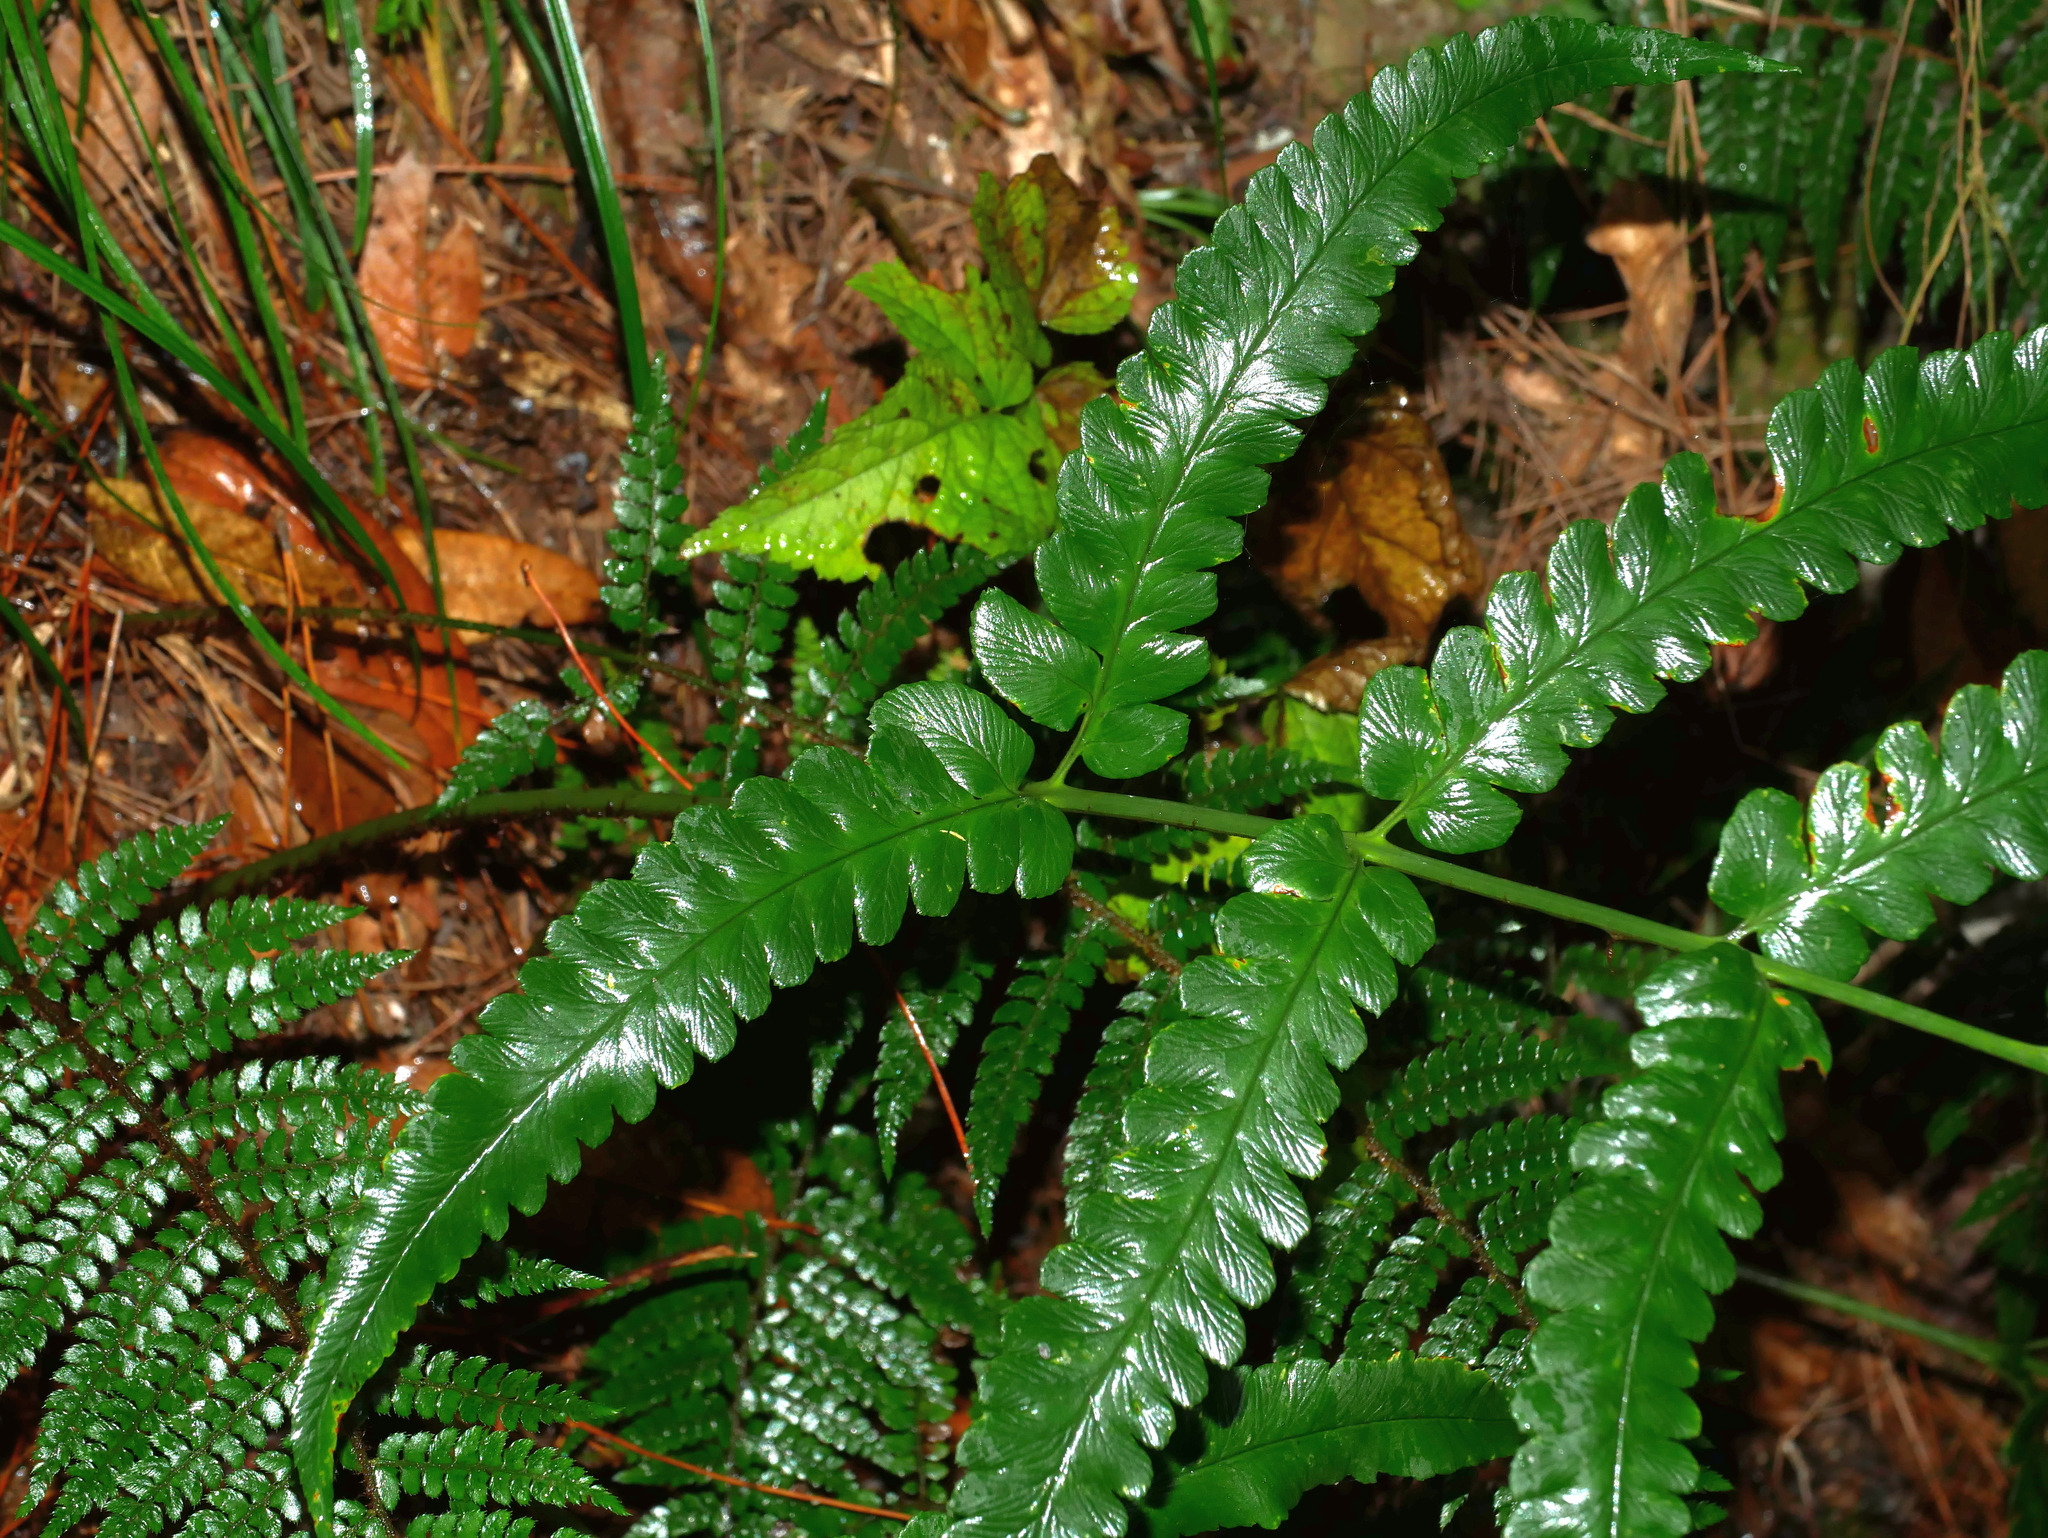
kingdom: Plantae
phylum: Tracheophyta
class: Polypodiopsida
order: Polypodiales
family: Dryopteridaceae
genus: Dryopteris
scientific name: Dryopteris toyamae
